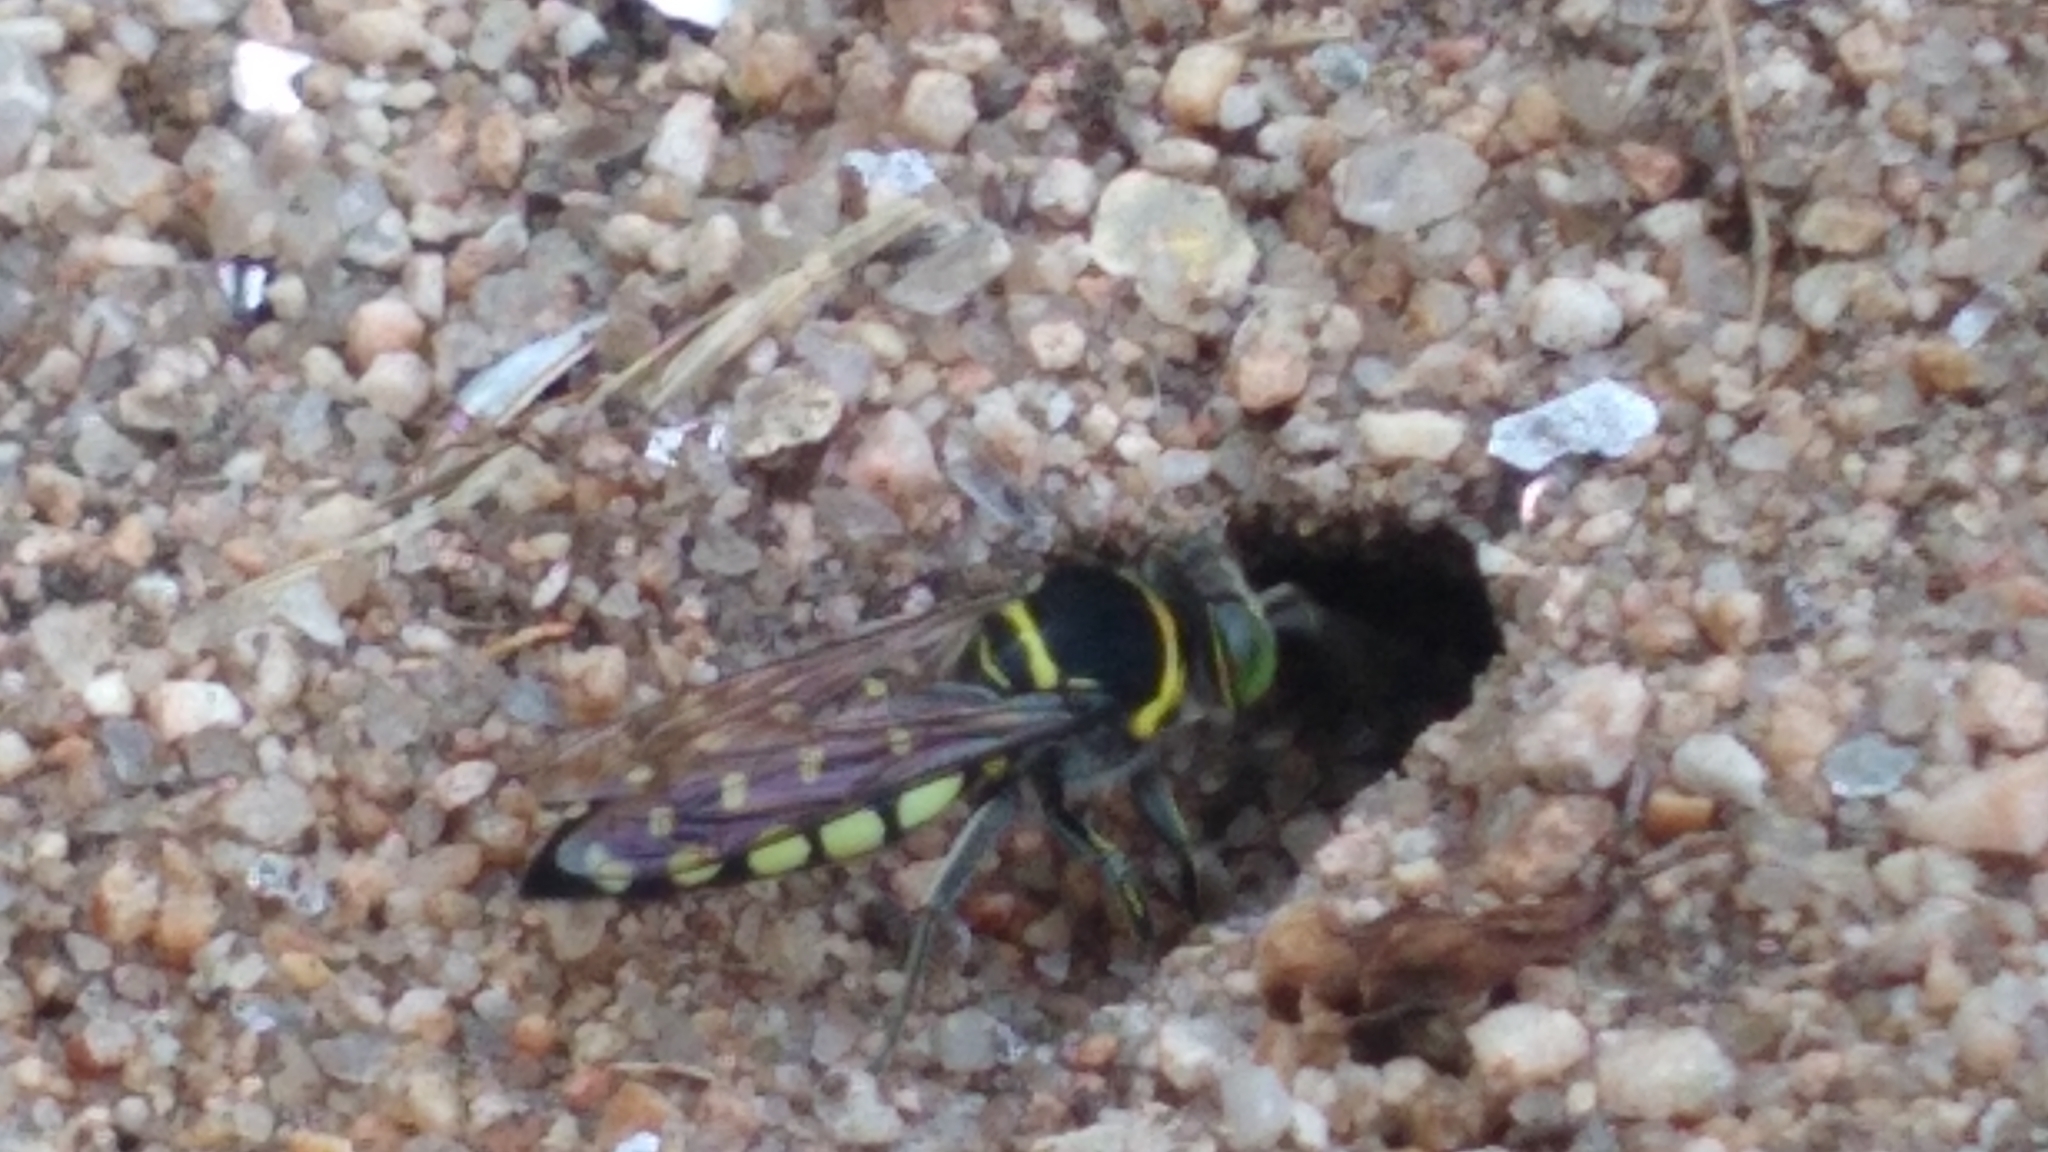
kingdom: Animalia
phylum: Arthropoda
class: Insecta
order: Hymenoptera
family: Crabronidae
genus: Stictia
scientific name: Stictia maccus
